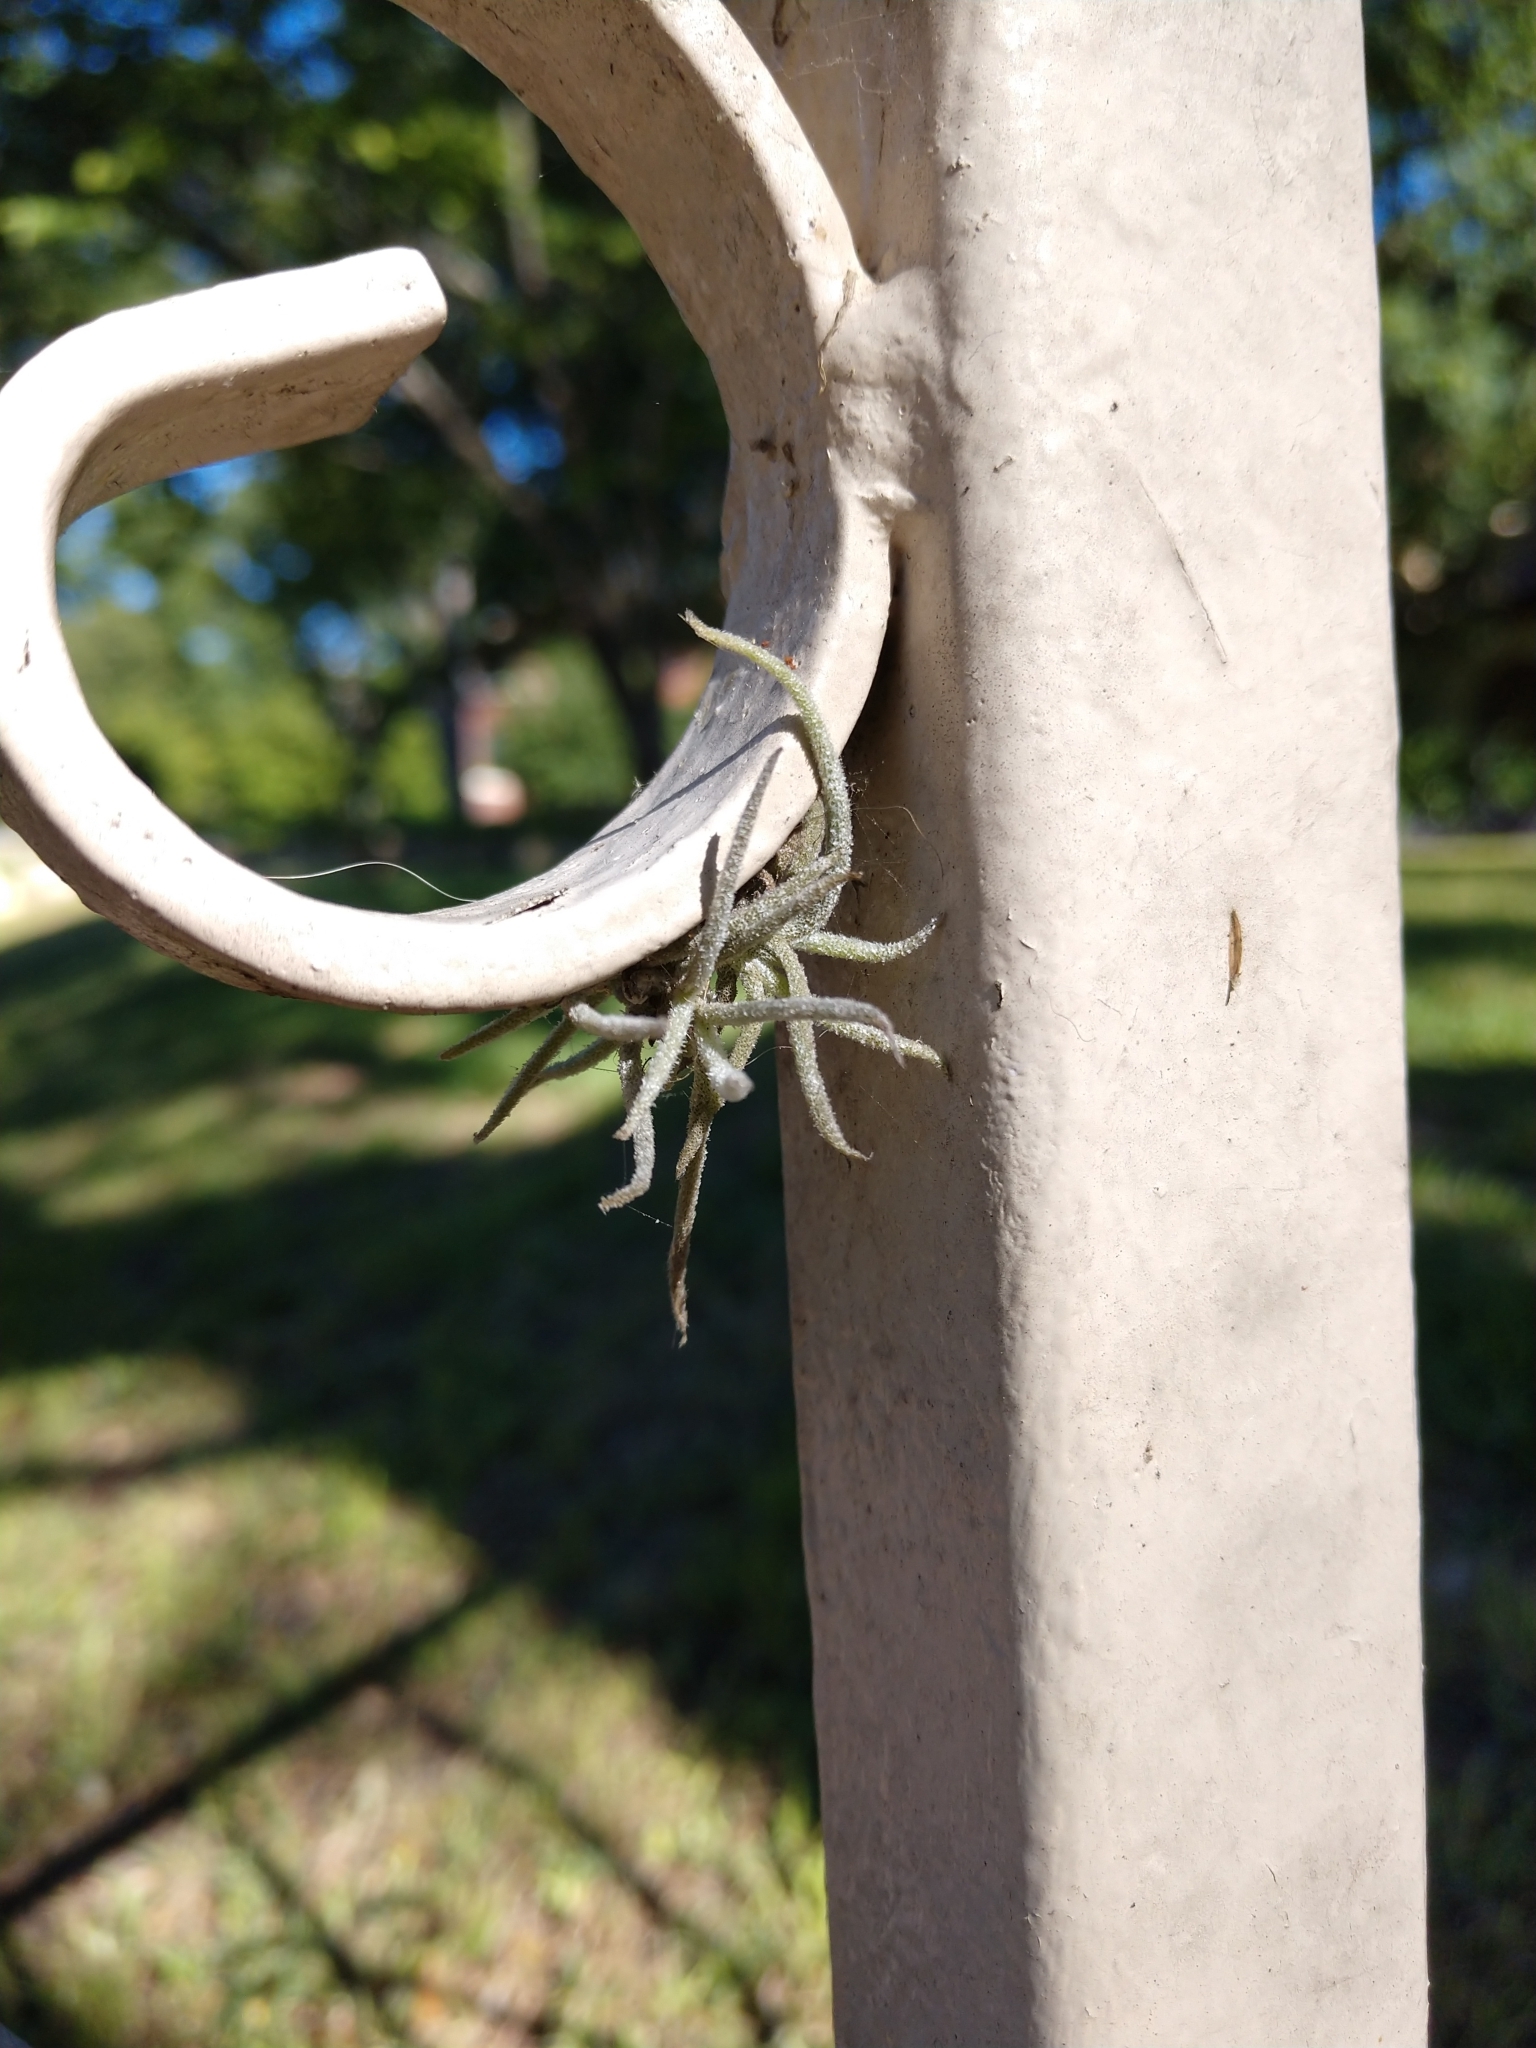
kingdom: Plantae
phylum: Tracheophyta
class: Liliopsida
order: Poales
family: Bromeliaceae
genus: Tillandsia
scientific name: Tillandsia recurvata
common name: Small ballmoss
